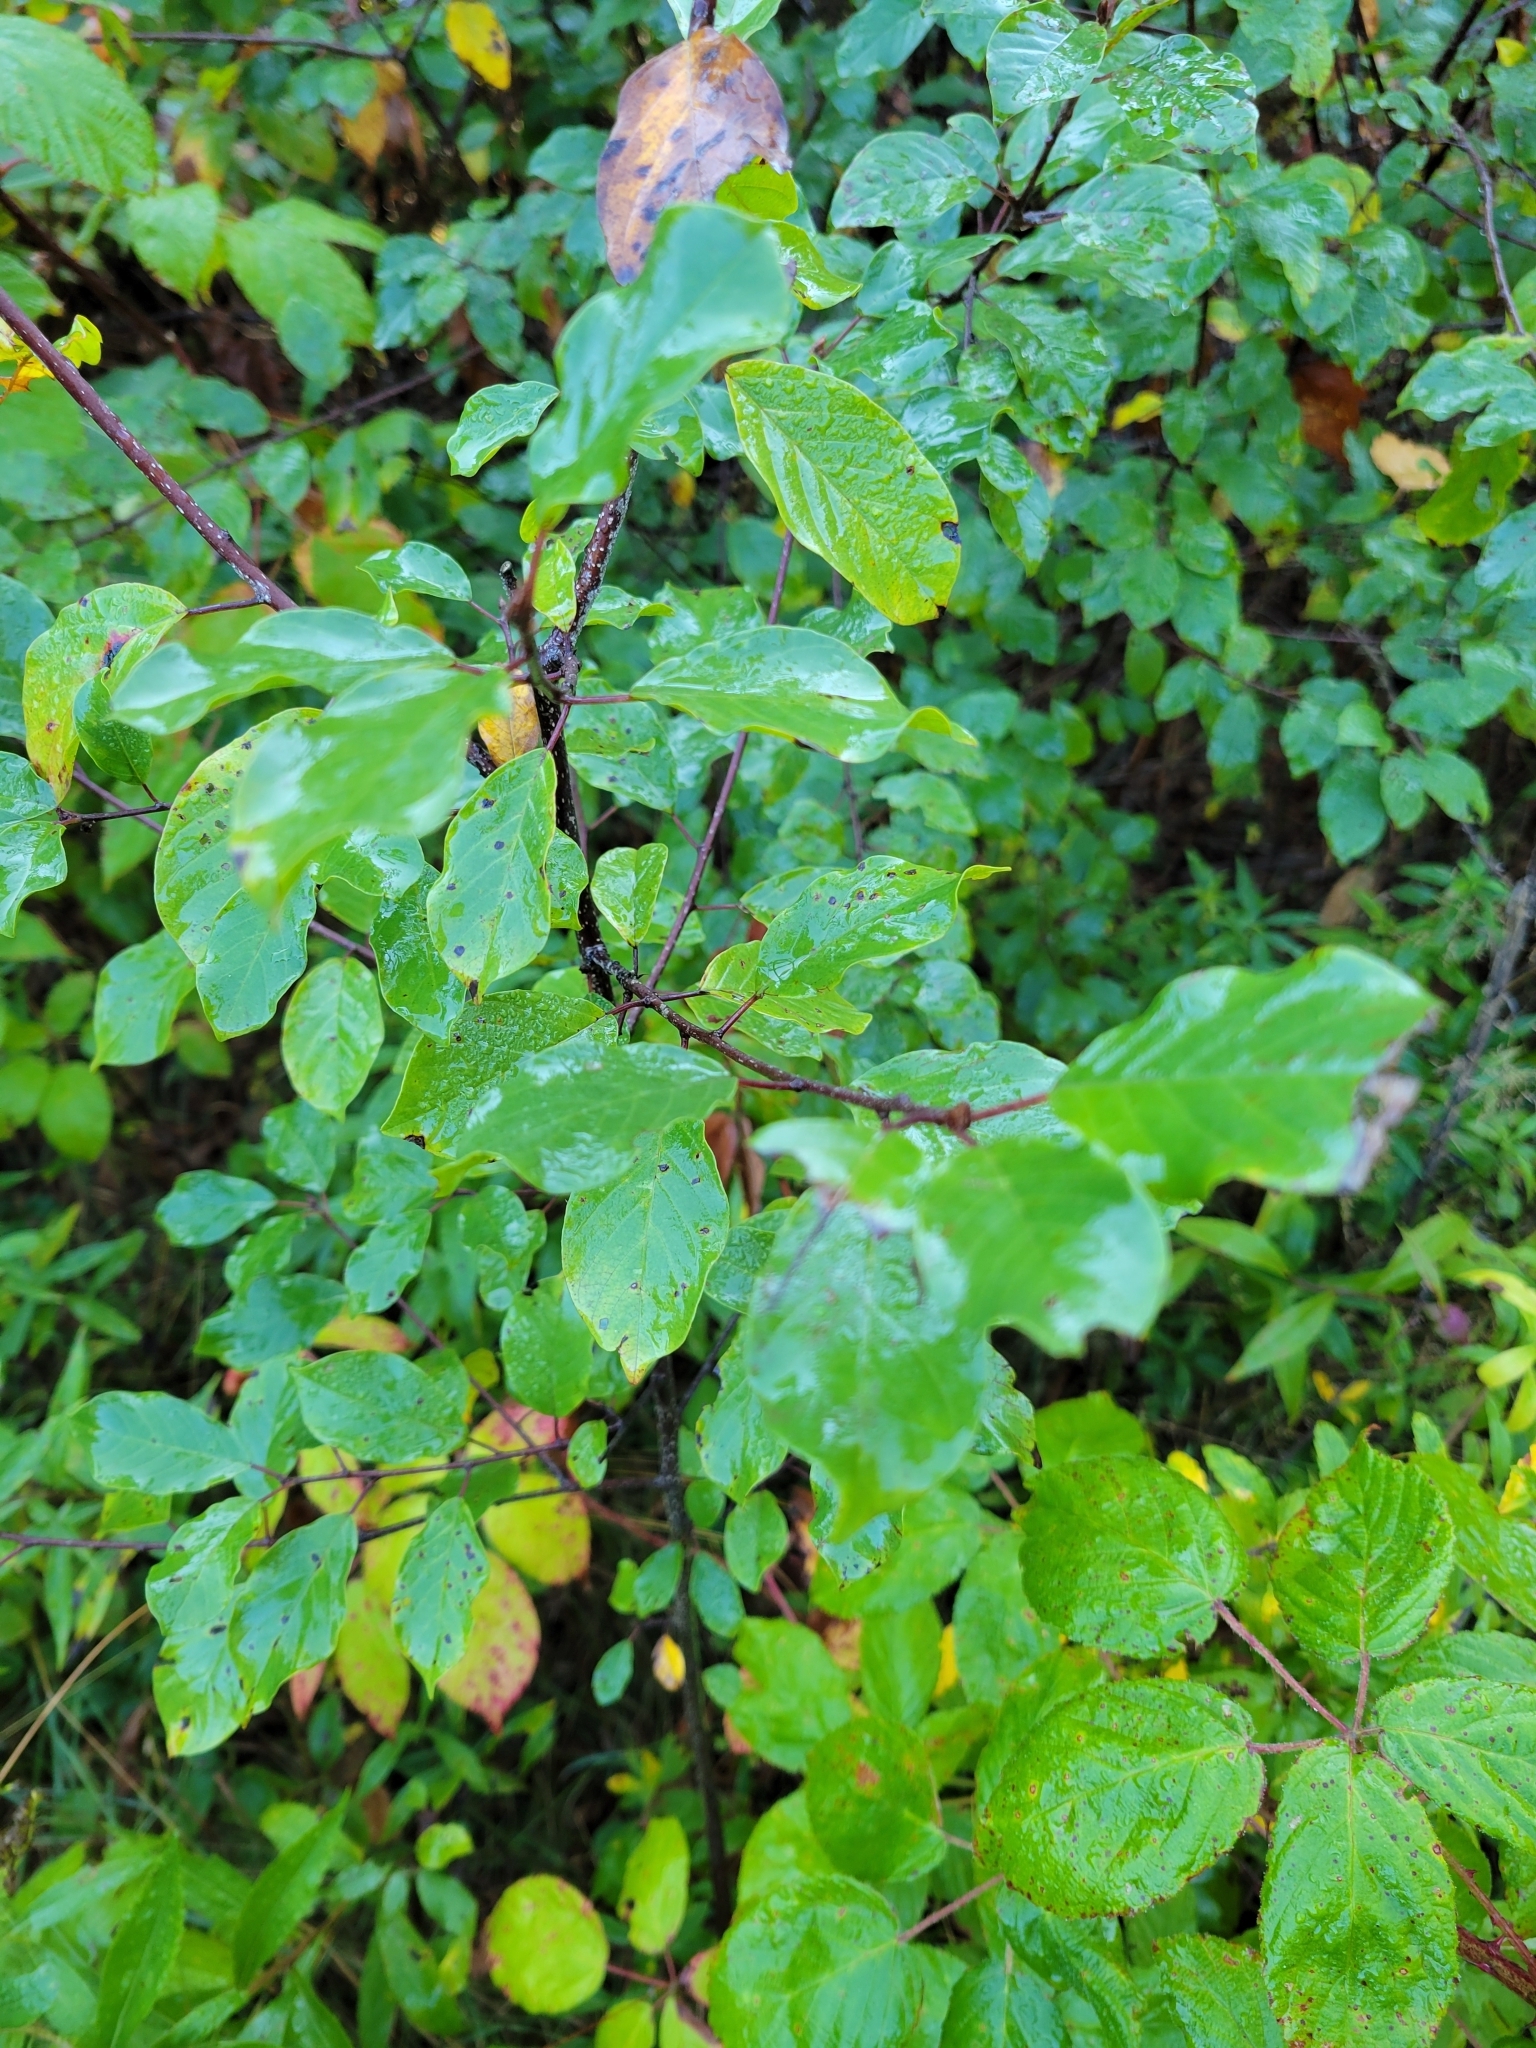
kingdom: Plantae
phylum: Tracheophyta
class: Magnoliopsida
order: Rosales
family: Rhamnaceae
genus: Frangula
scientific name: Frangula alnus
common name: Alder buckthorn
